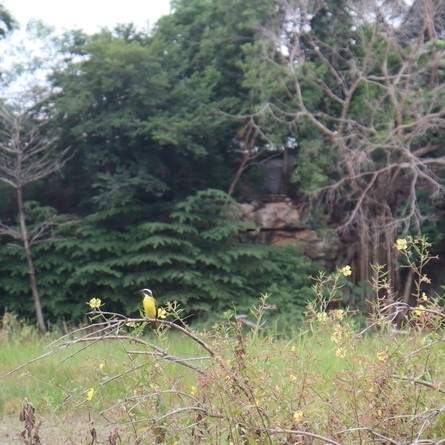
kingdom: Animalia
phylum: Chordata
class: Aves
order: Passeriformes
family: Tyrannidae
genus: Myiozetetes
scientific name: Myiozetetes similis
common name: Social flycatcher
